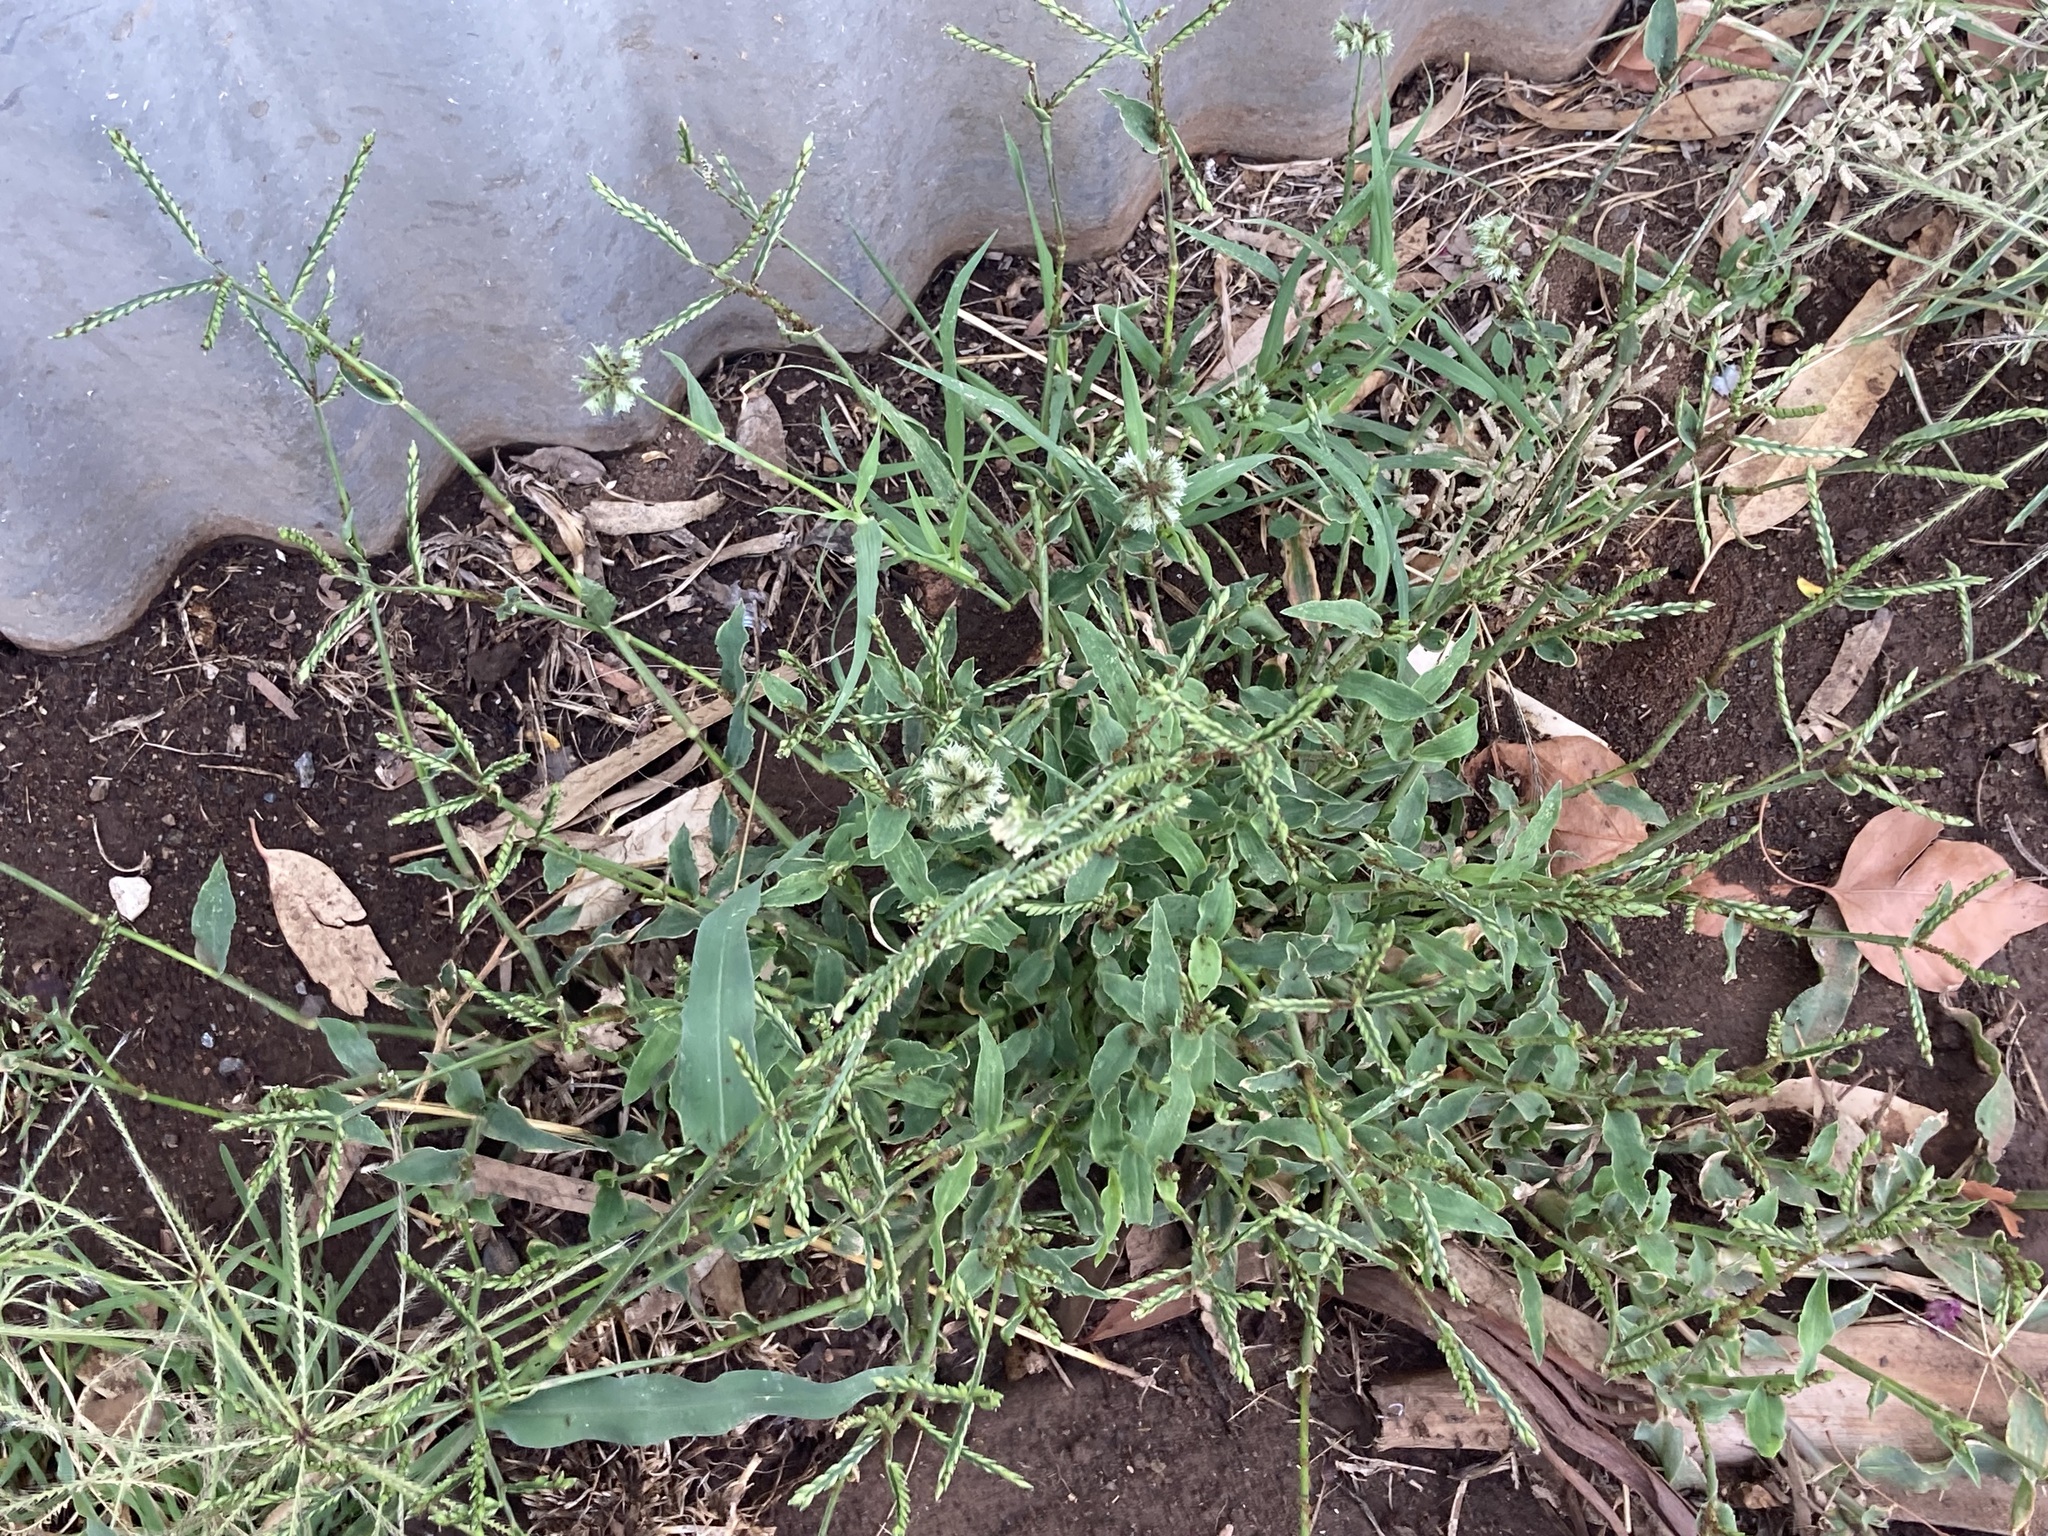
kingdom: Plantae
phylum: Tracheophyta
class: Liliopsida
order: Poales
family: Poaceae
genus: Urochloa
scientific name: Urochloa panicoides
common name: Sharp-flowered signal-grass
